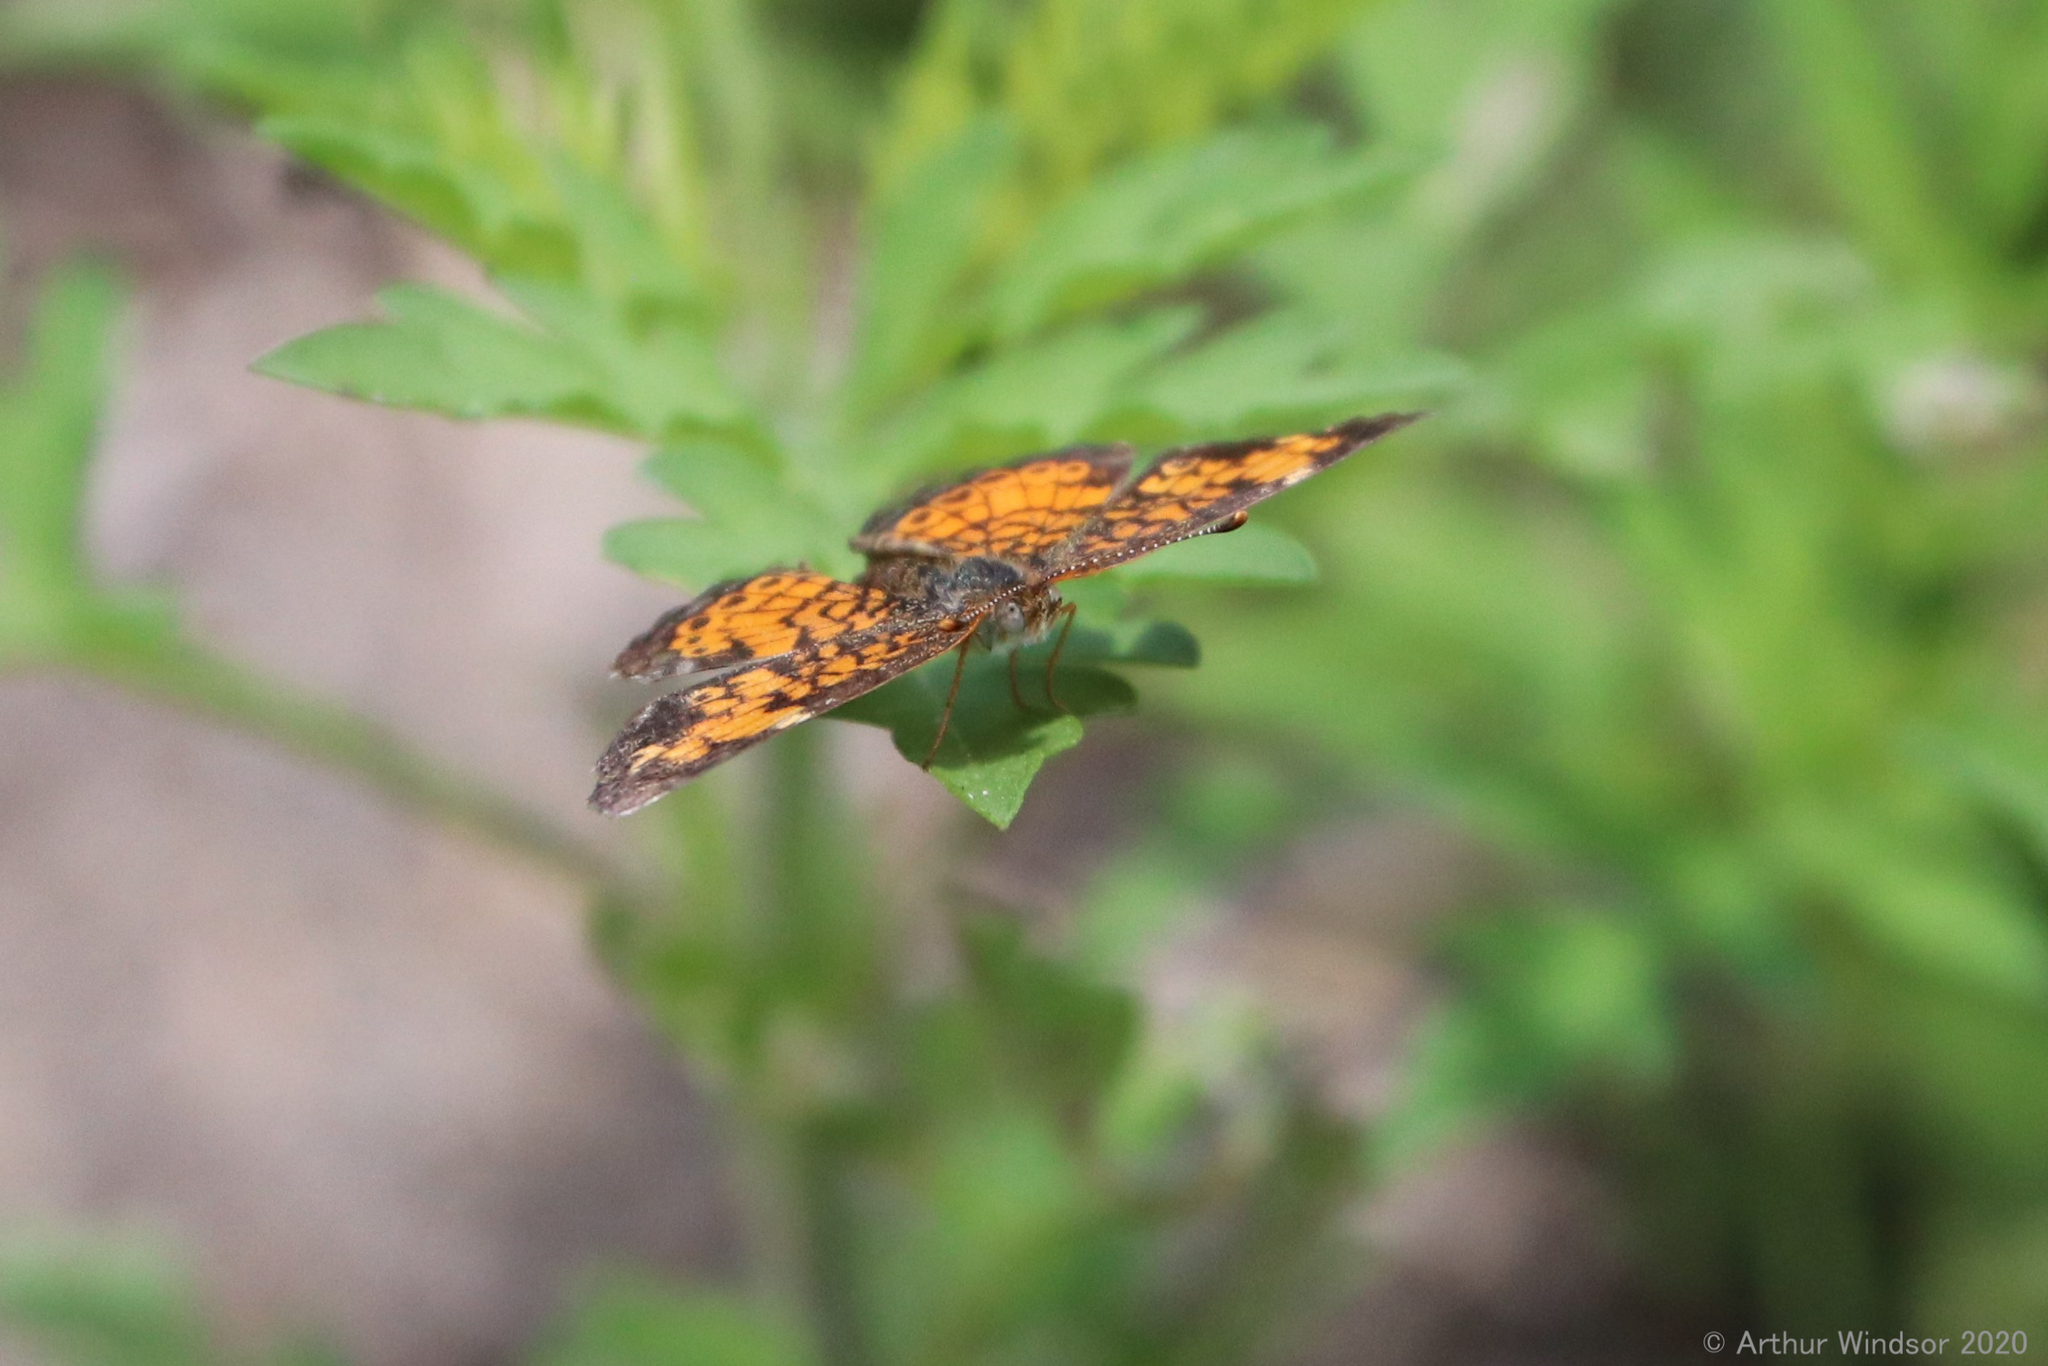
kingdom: Animalia
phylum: Arthropoda
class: Insecta
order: Lepidoptera
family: Nymphalidae
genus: Phyciodes
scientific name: Phyciodes tharos
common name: Pearl crescent
